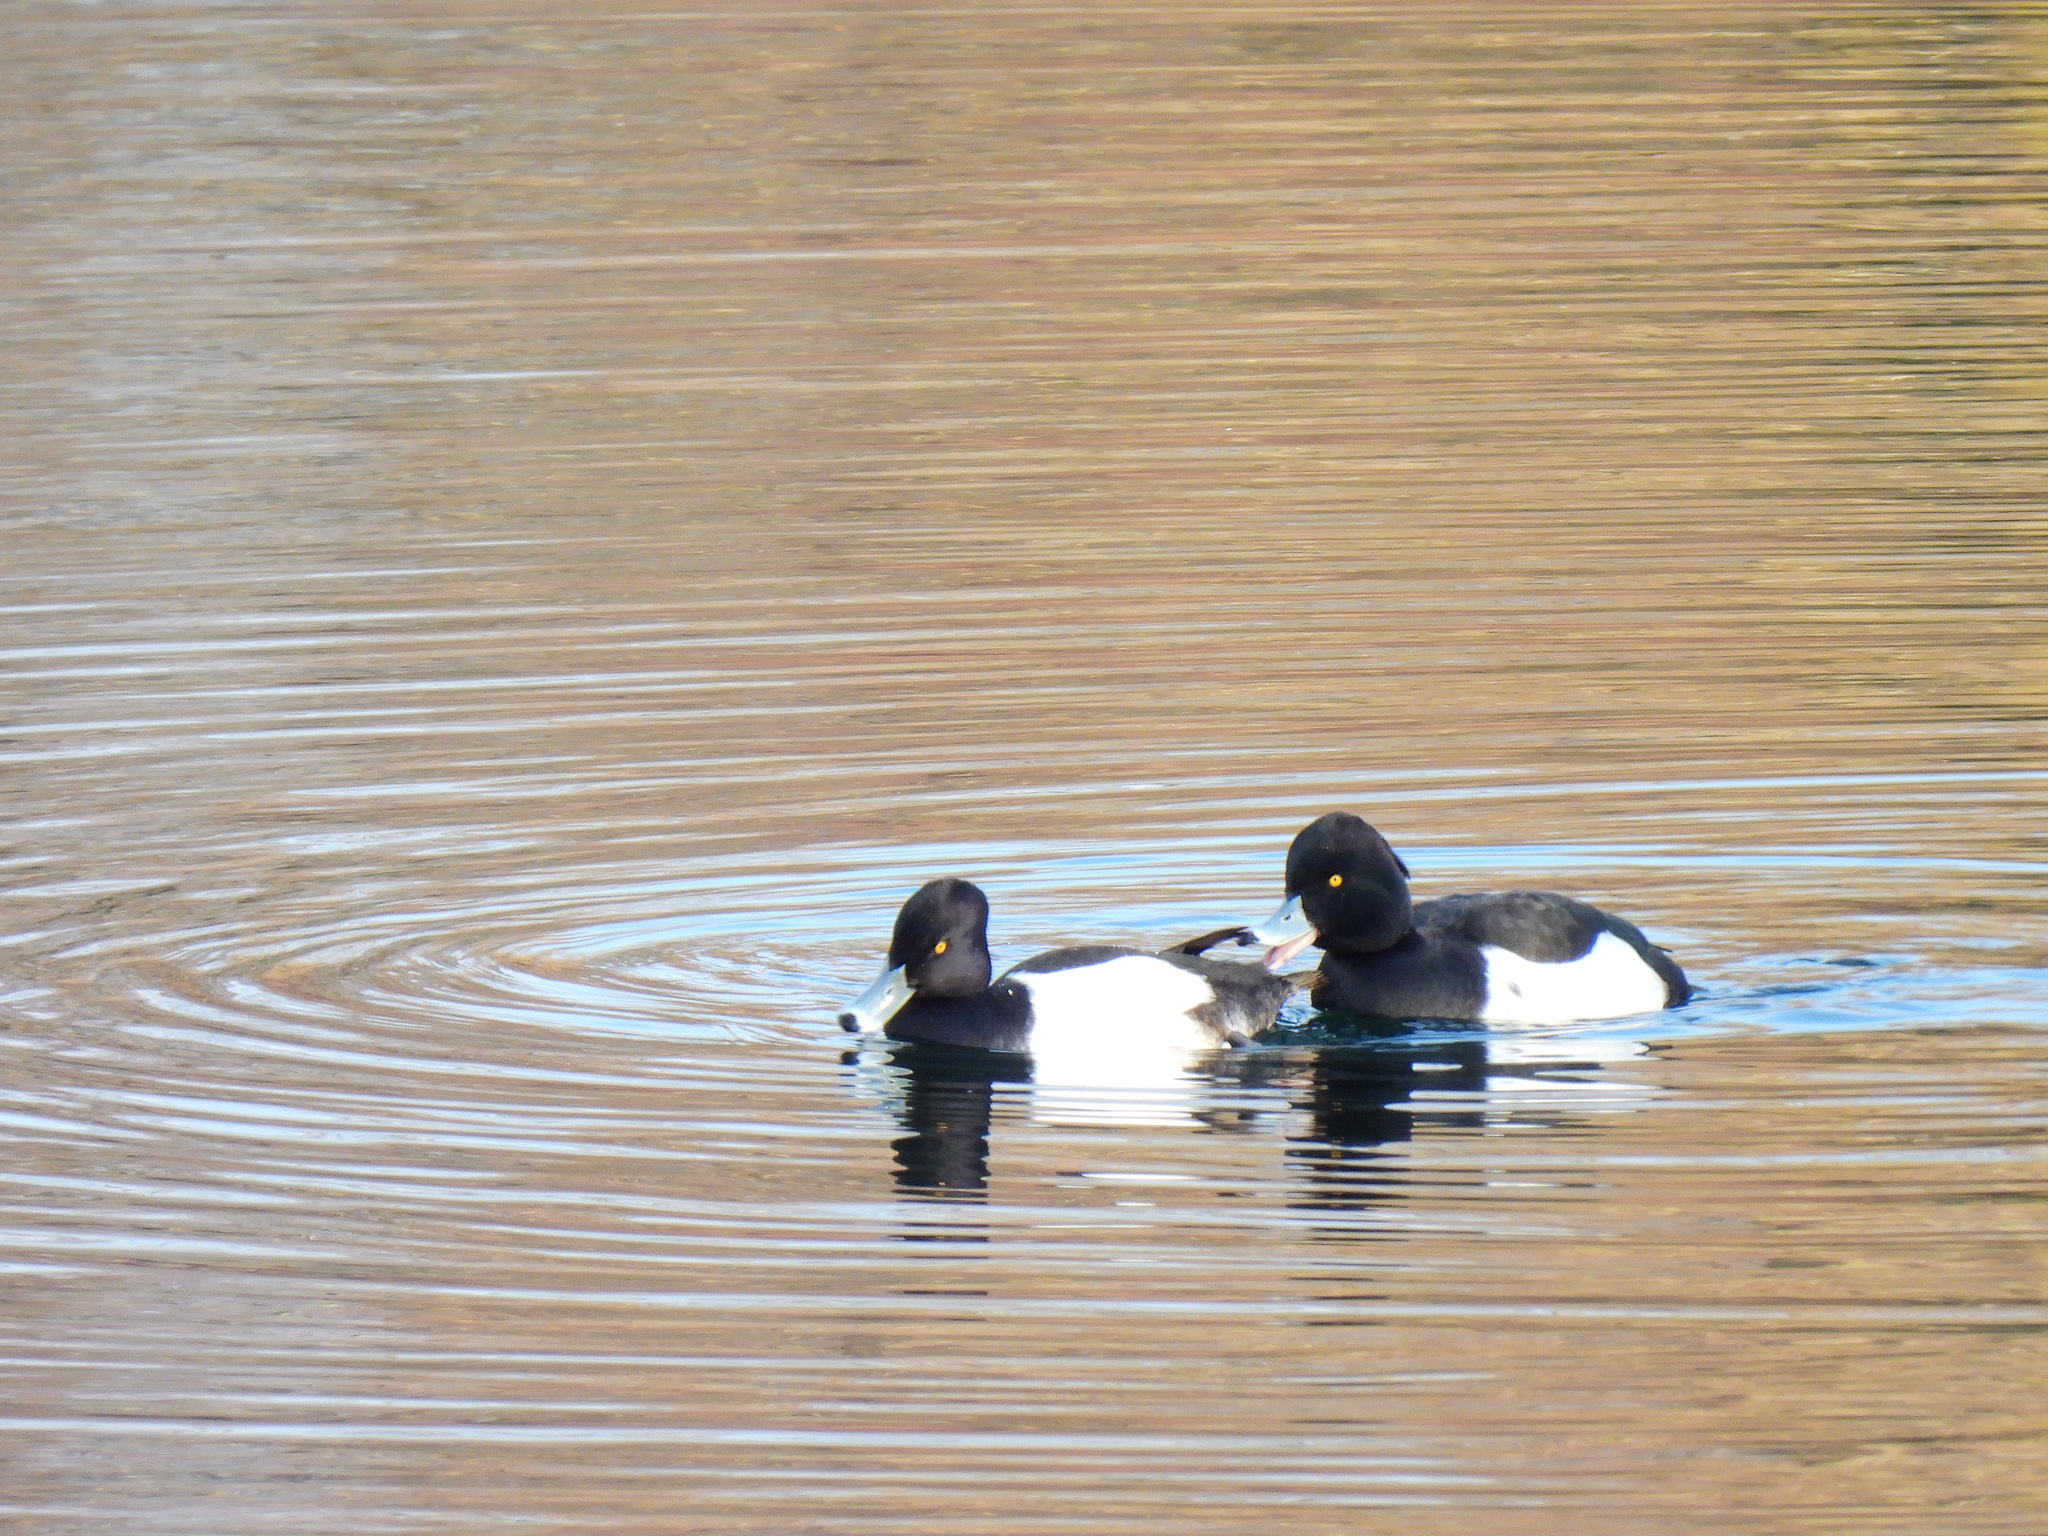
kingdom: Animalia
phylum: Chordata
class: Aves
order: Anseriformes
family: Anatidae
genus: Aythya
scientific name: Aythya fuligula
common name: Tufted duck
